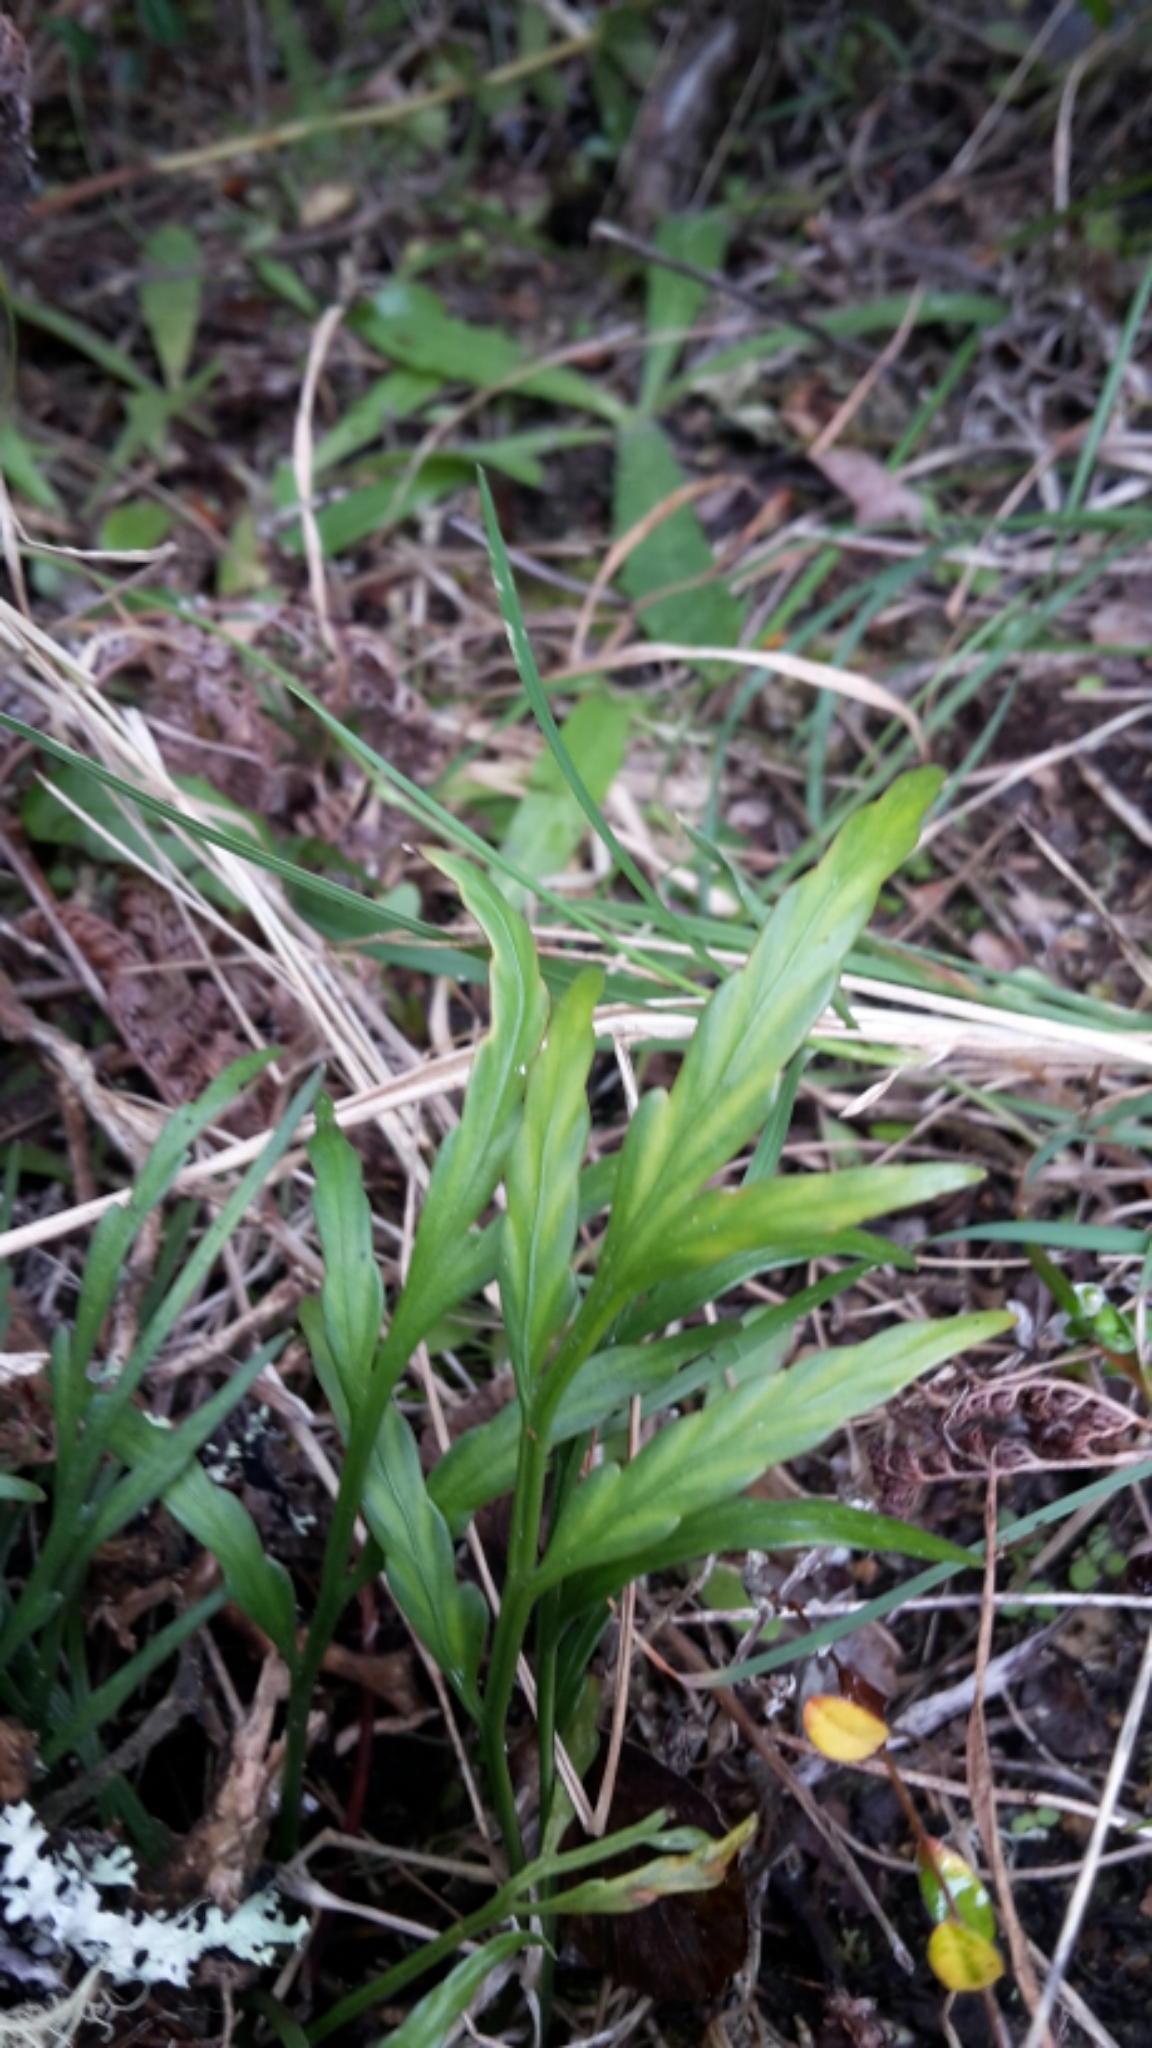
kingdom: Plantae
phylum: Tracheophyta
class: Polypodiopsida
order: Polypodiales
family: Aspleniaceae
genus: Asplenium
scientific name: Asplenium flaccidum
